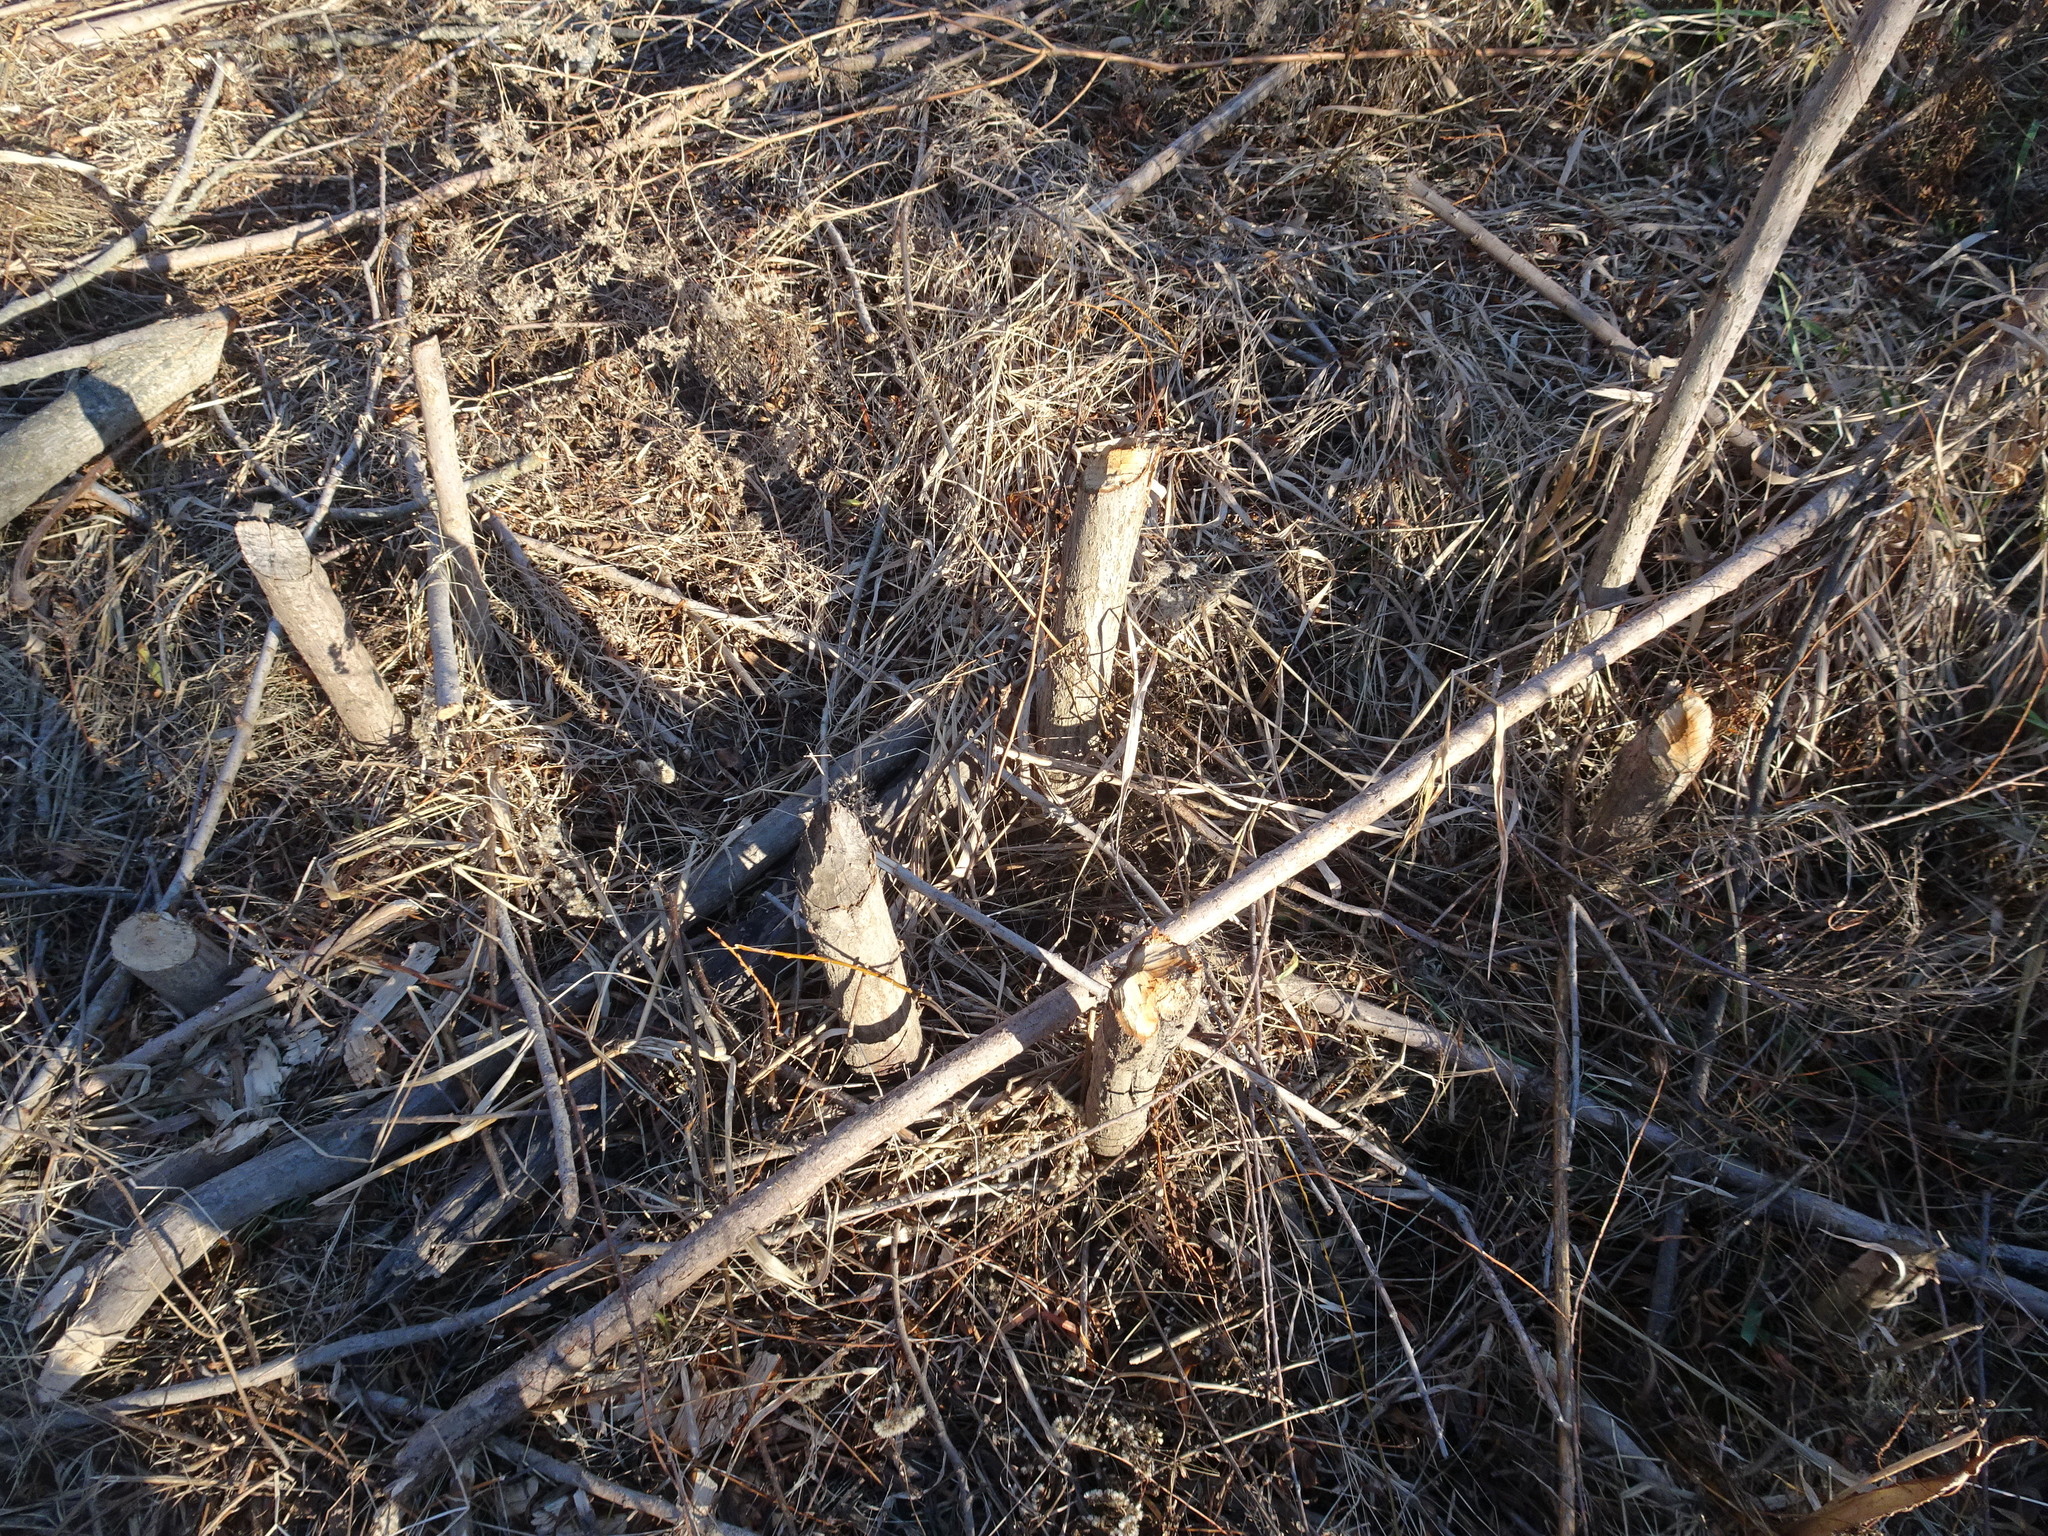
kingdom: Animalia
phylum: Chordata
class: Mammalia
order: Rodentia
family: Castoridae
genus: Castor
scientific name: Castor canadensis
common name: American beaver
